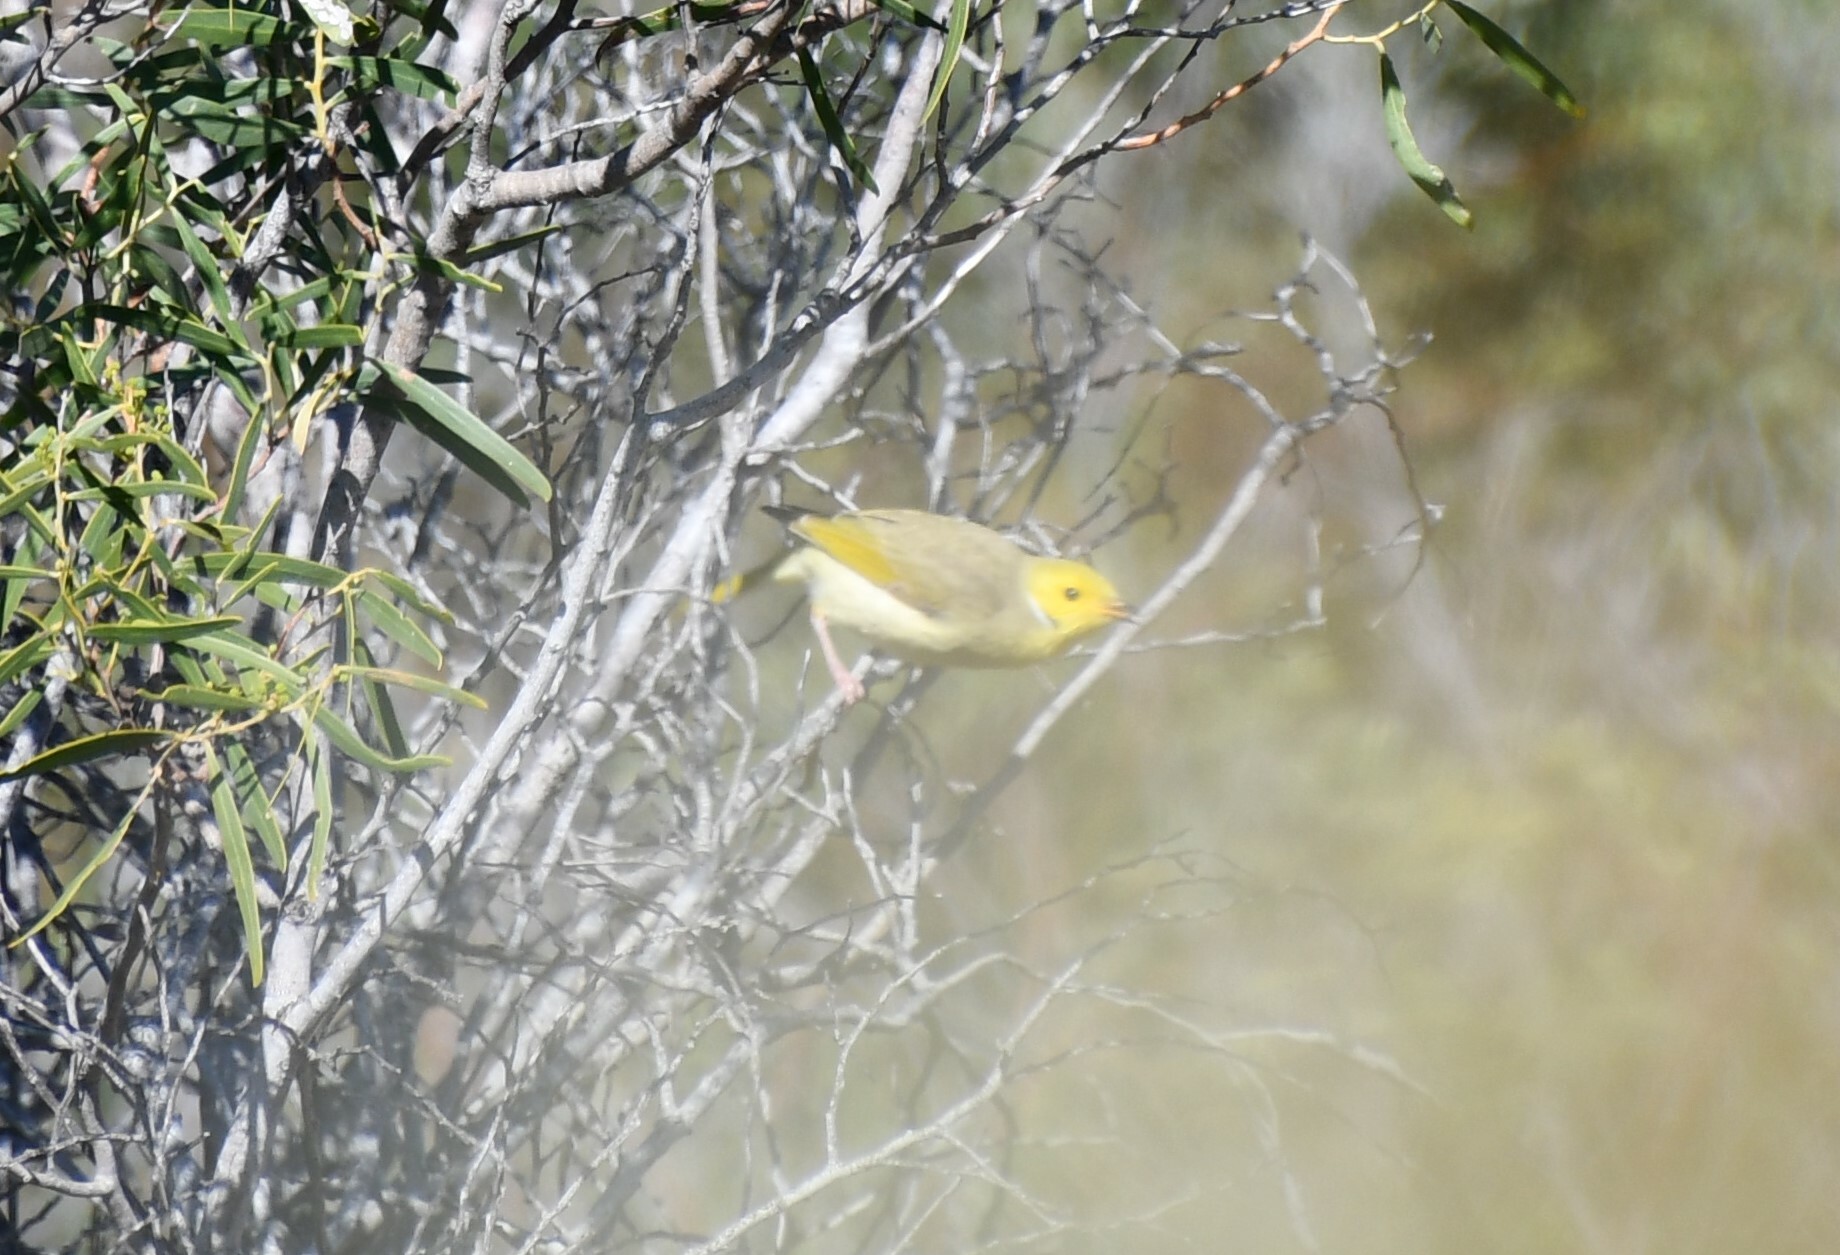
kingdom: Animalia
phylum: Chordata
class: Aves
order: Passeriformes
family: Meliphagidae
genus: Ptilotula
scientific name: Ptilotula penicillata
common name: White-plumed honeyeater
